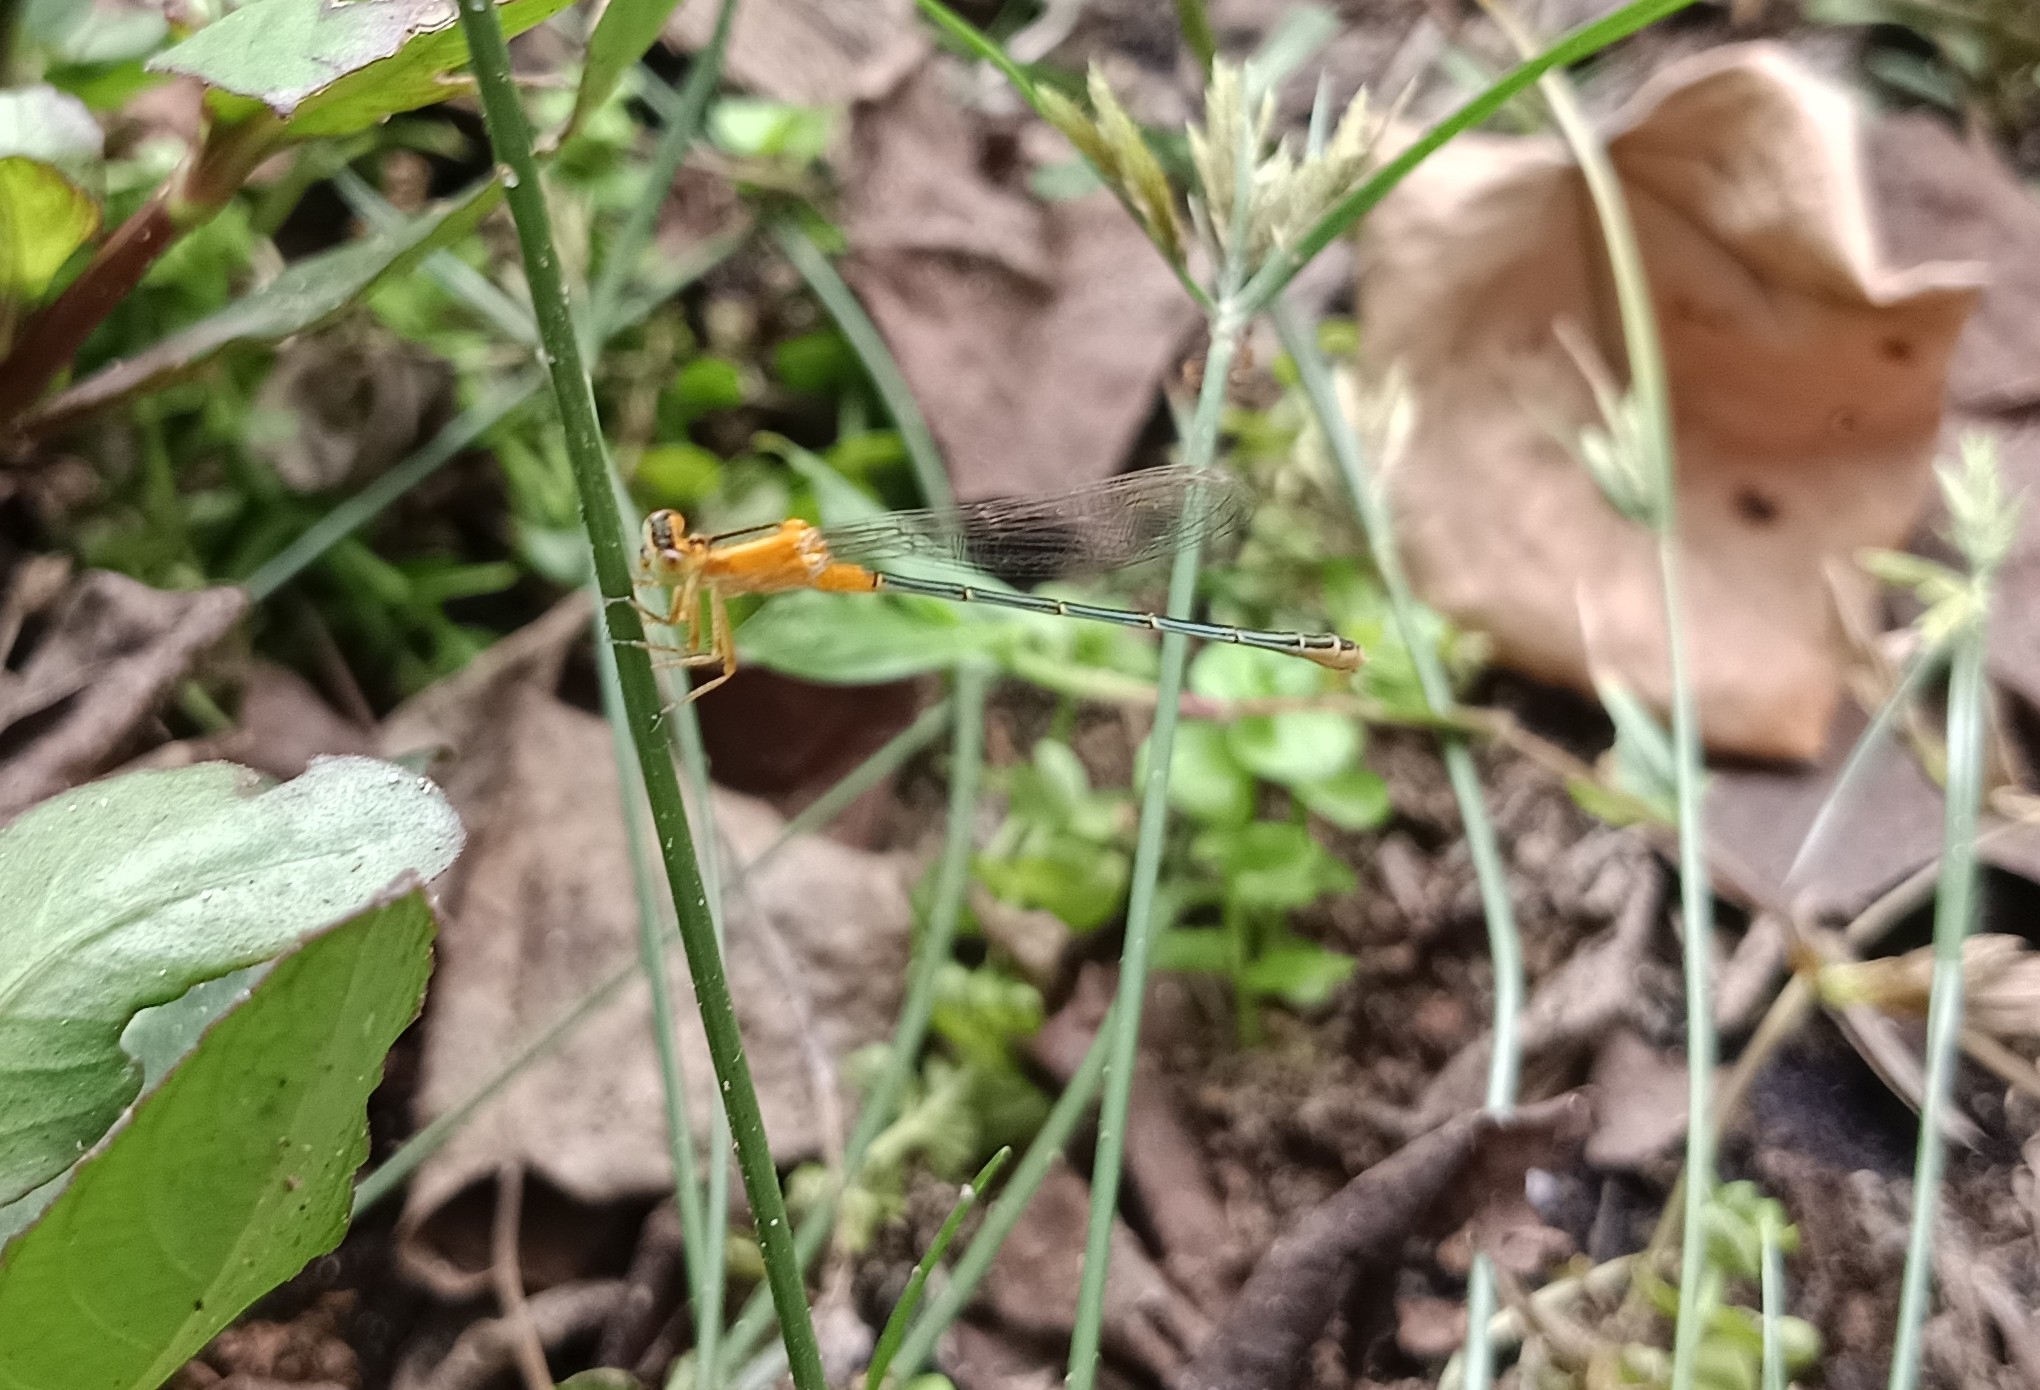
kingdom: Animalia
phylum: Arthropoda
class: Insecta
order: Odonata
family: Coenagrionidae
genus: Ischnura
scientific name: Ischnura senegalensis
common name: Tropical bluetail
